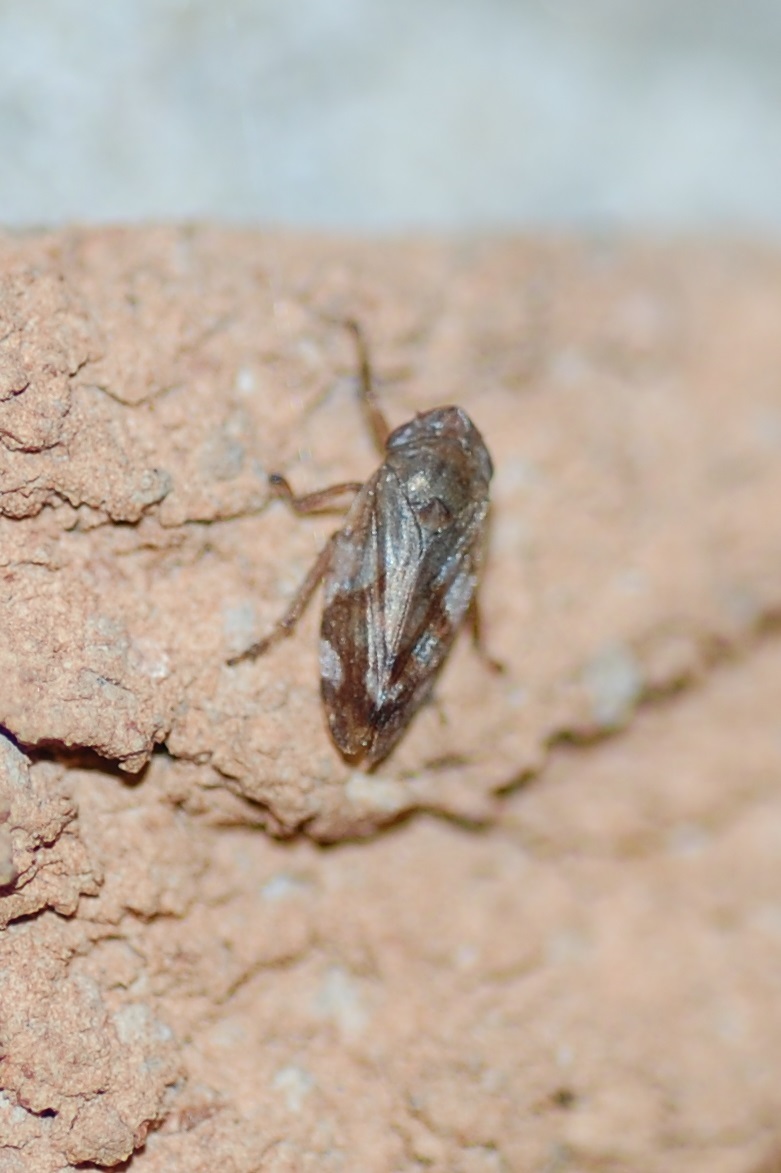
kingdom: Animalia
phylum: Arthropoda
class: Insecta
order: Hemiptera
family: Aphrophoridae
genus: Philaenus
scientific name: Philaenus spumarius
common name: Meadow spittlebug
